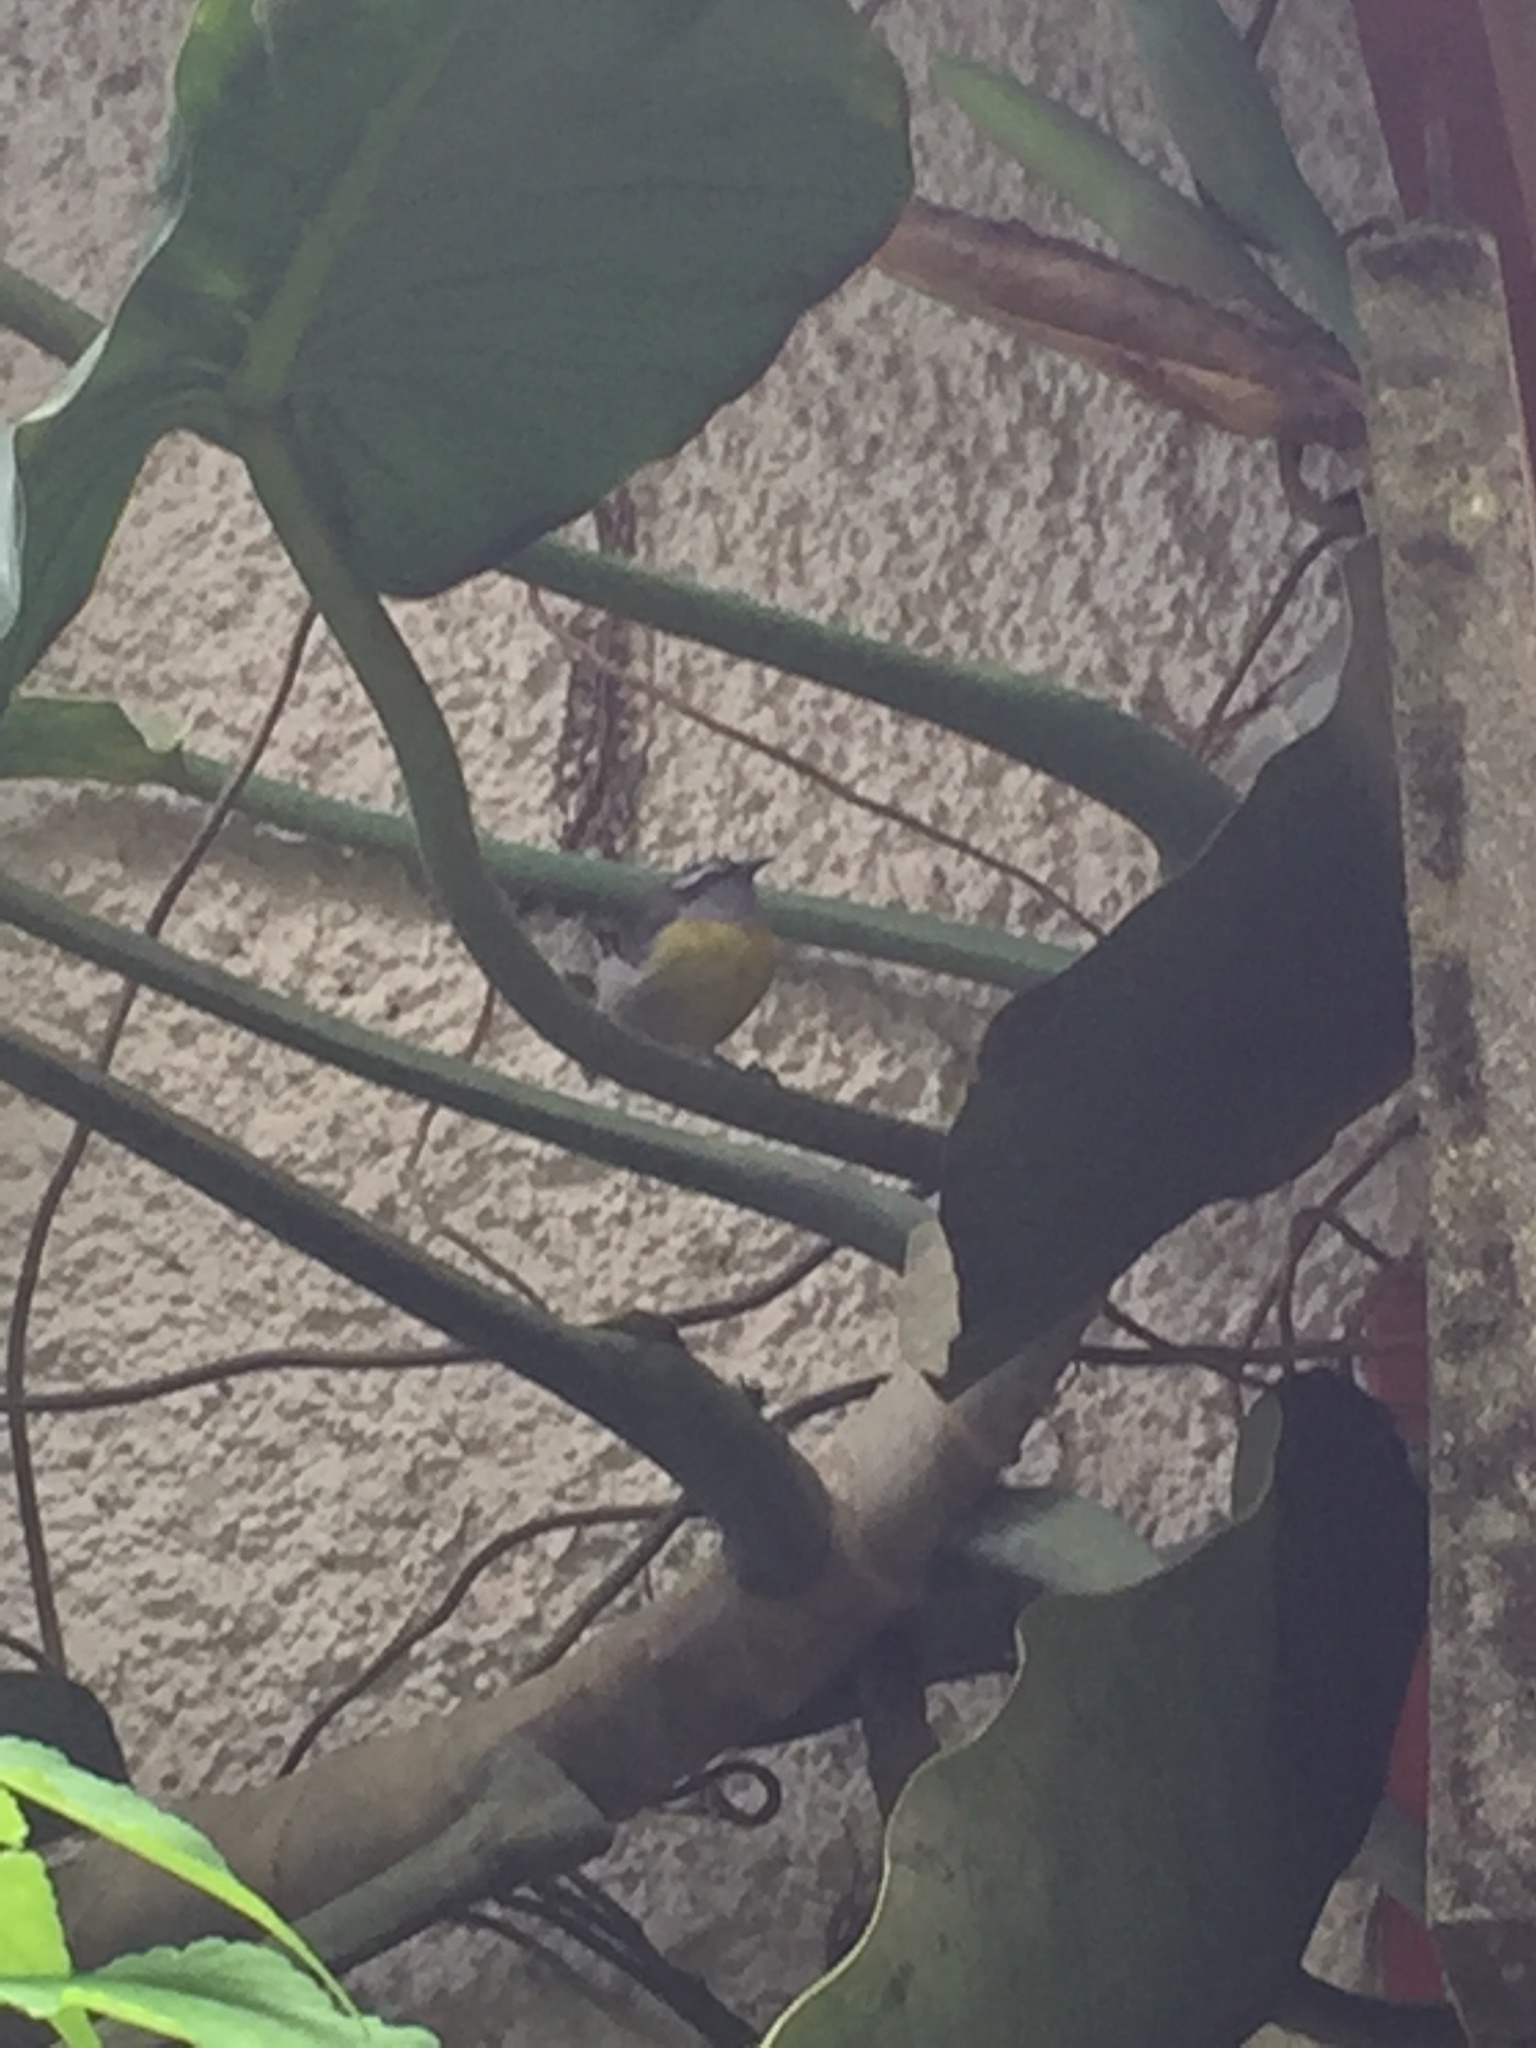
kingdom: Animalia
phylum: Chordata
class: Aves
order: Passeriformes
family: Thraupidae
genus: Coereba
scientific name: Coereba flaveola
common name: Bananaquit
